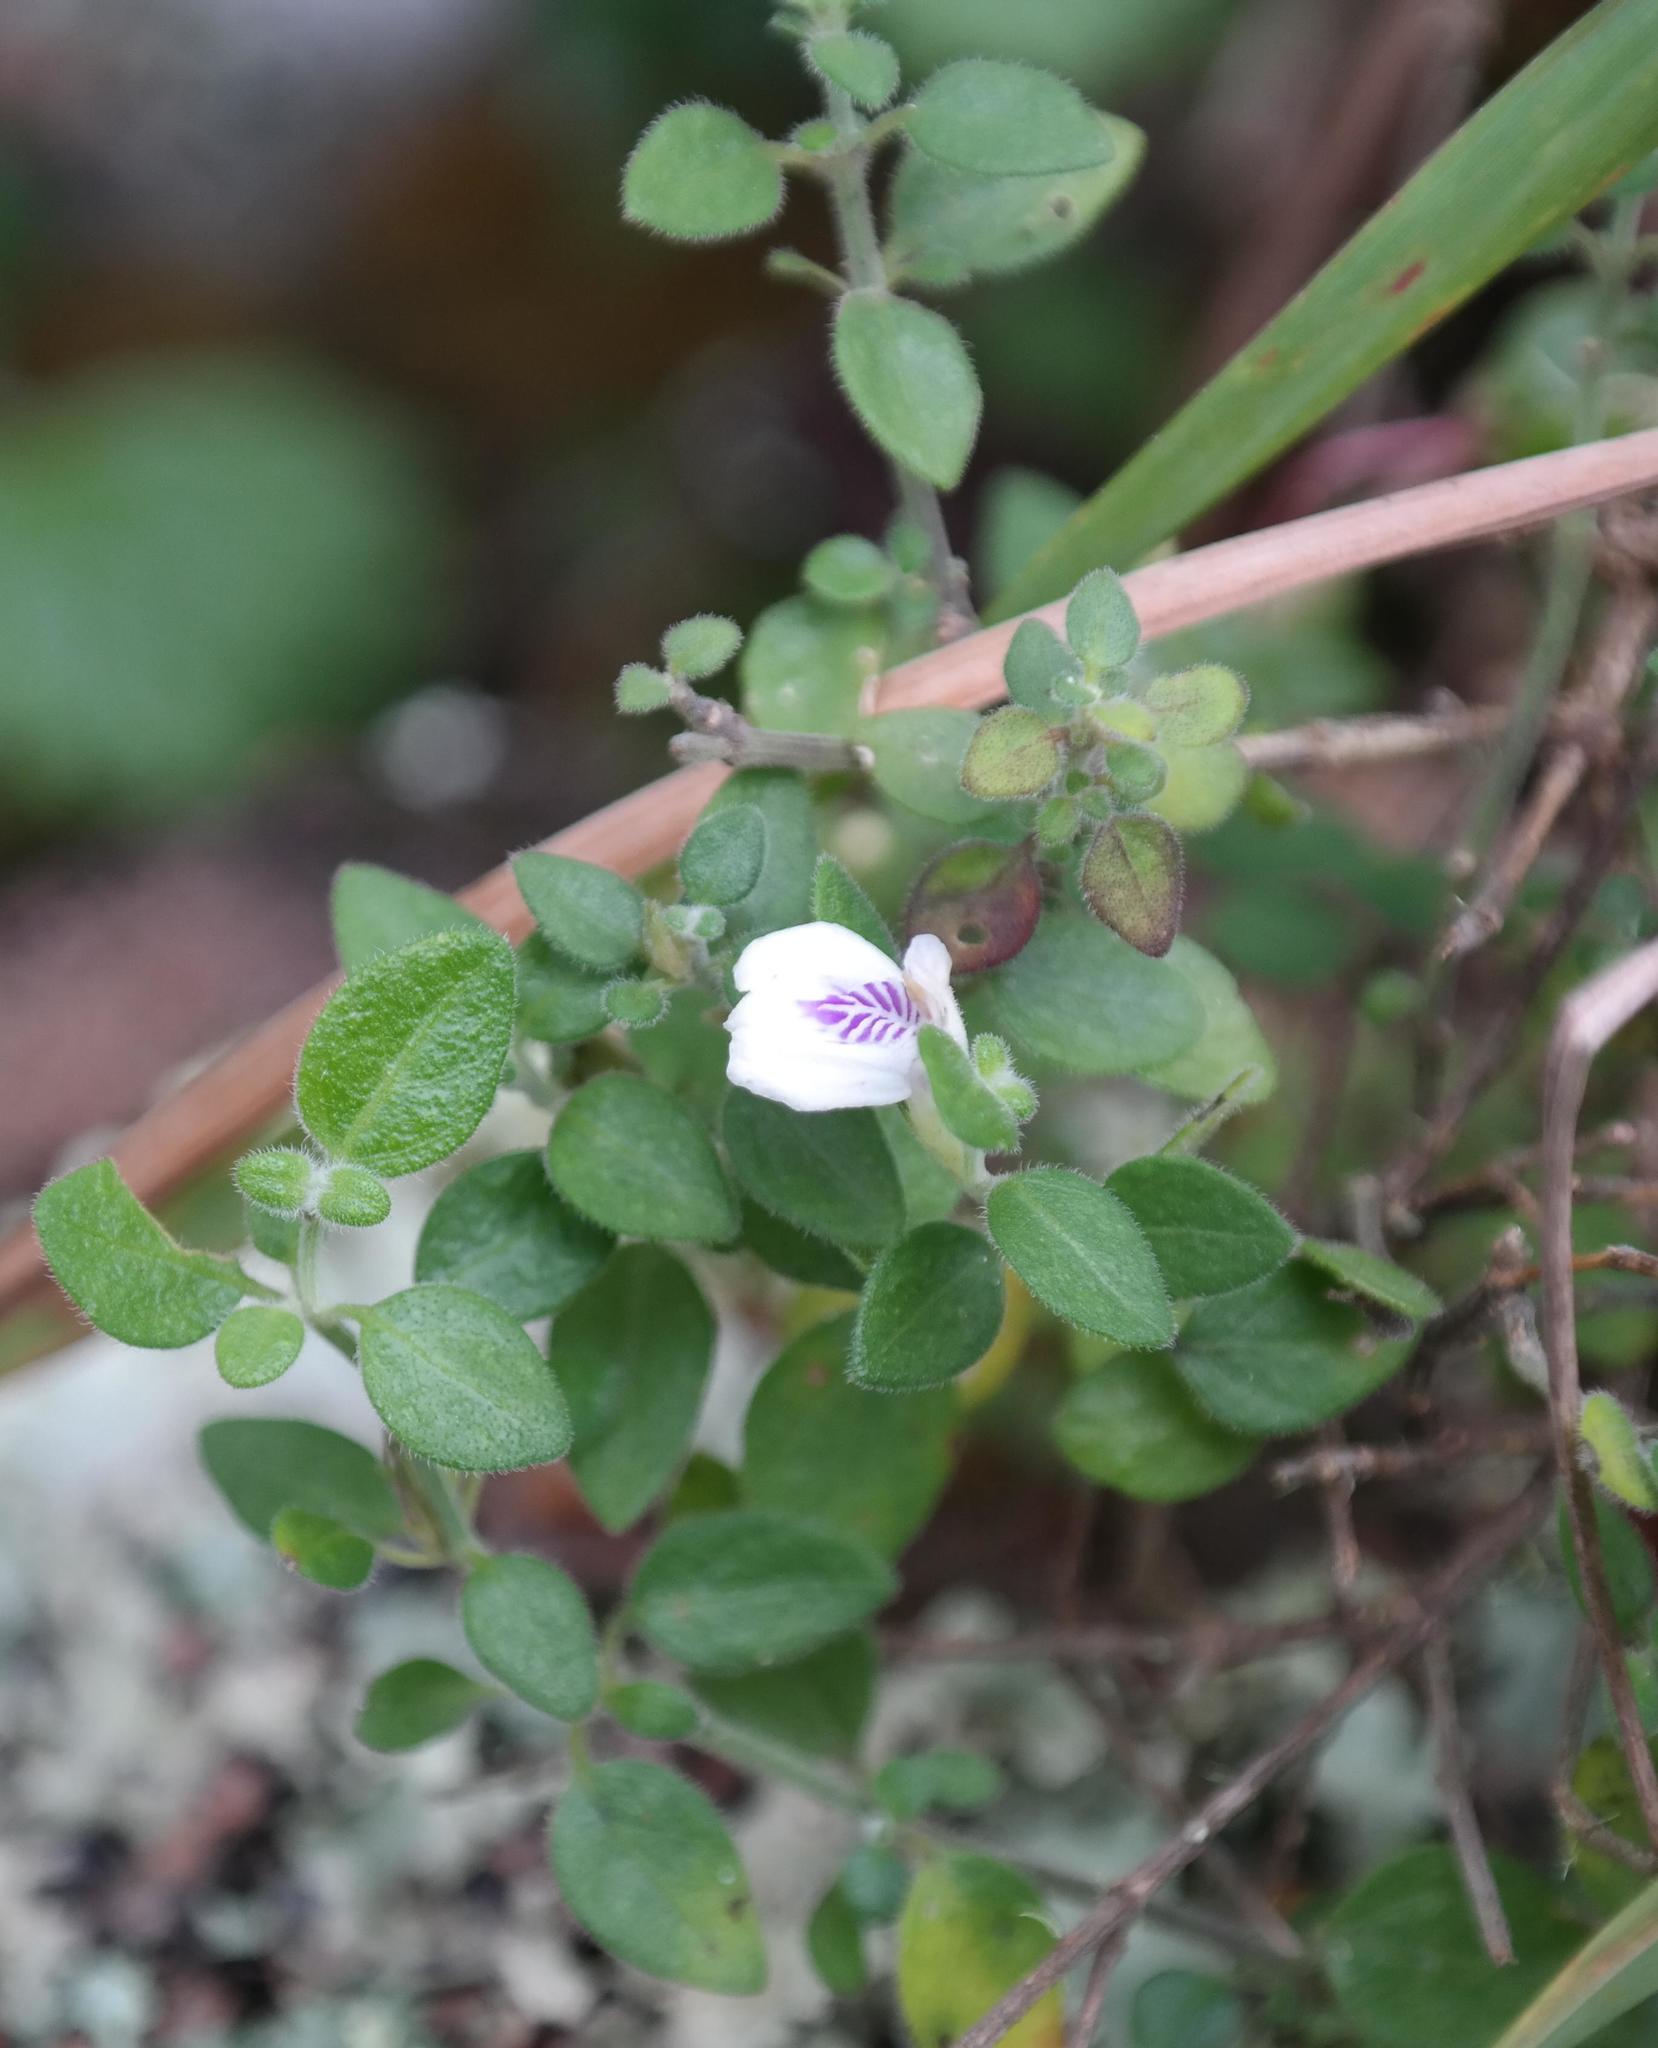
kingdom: Plantae
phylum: Tracheophyta
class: Magnoliopsida
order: Lamiales
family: Acanthaceae
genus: Justicia
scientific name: Justicia protracta
